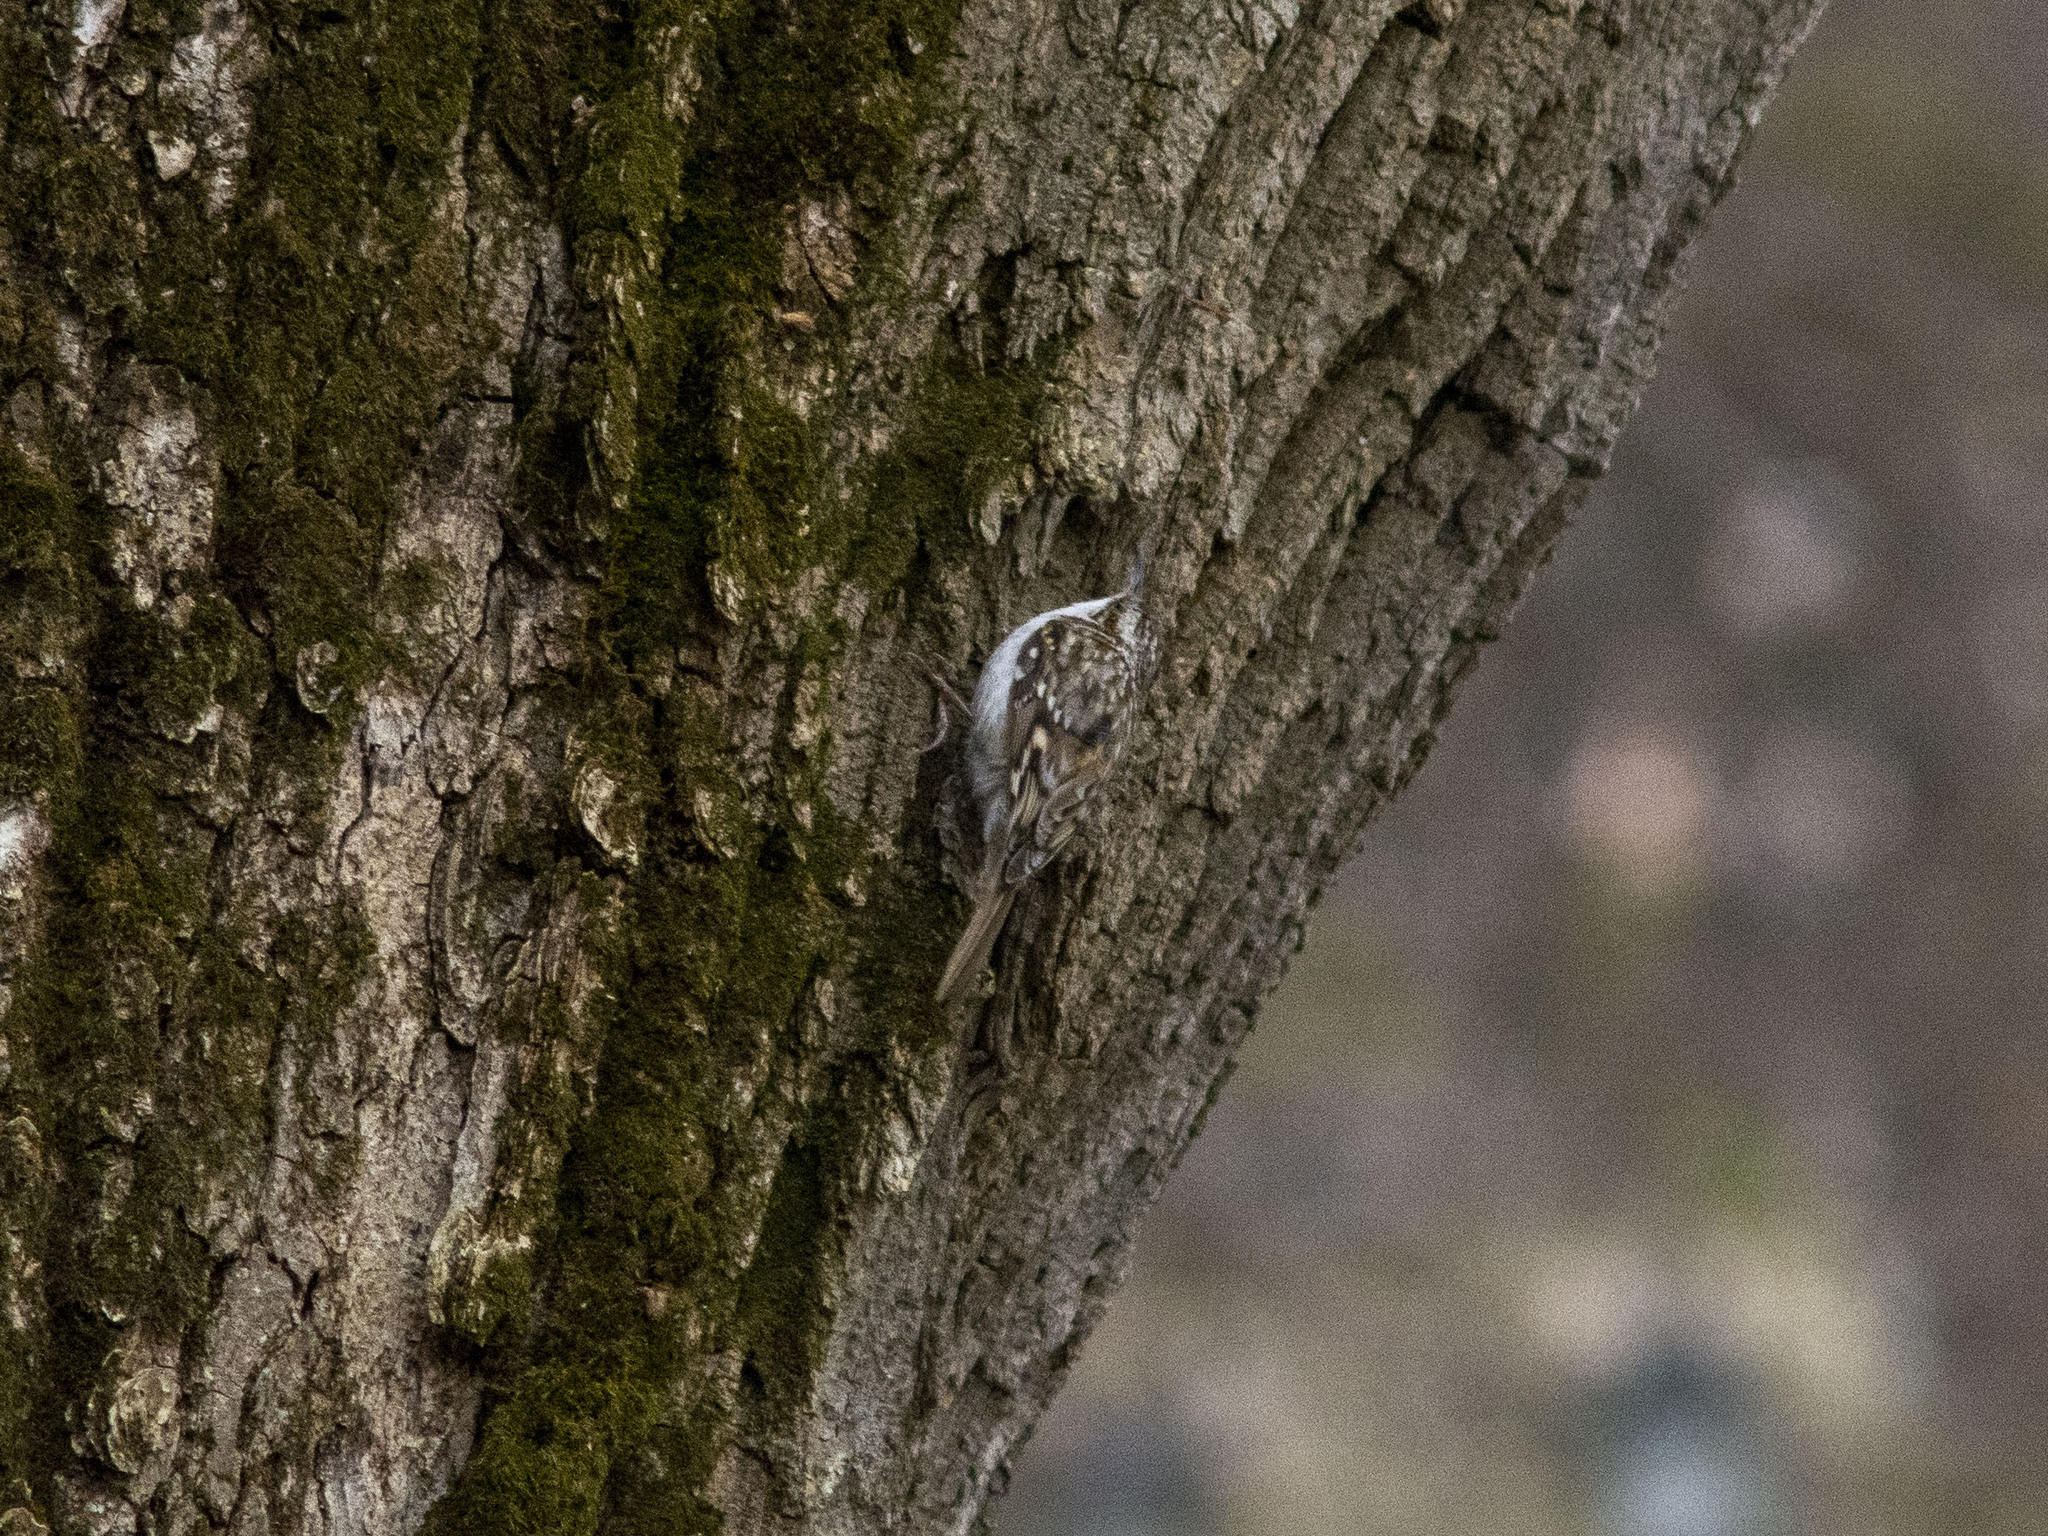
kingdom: Animalia
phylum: Chordata
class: Aves
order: Passeriformes
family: Certhiidae
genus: Certhia
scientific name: Certhia familiaris
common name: Eurasian treecreeper
